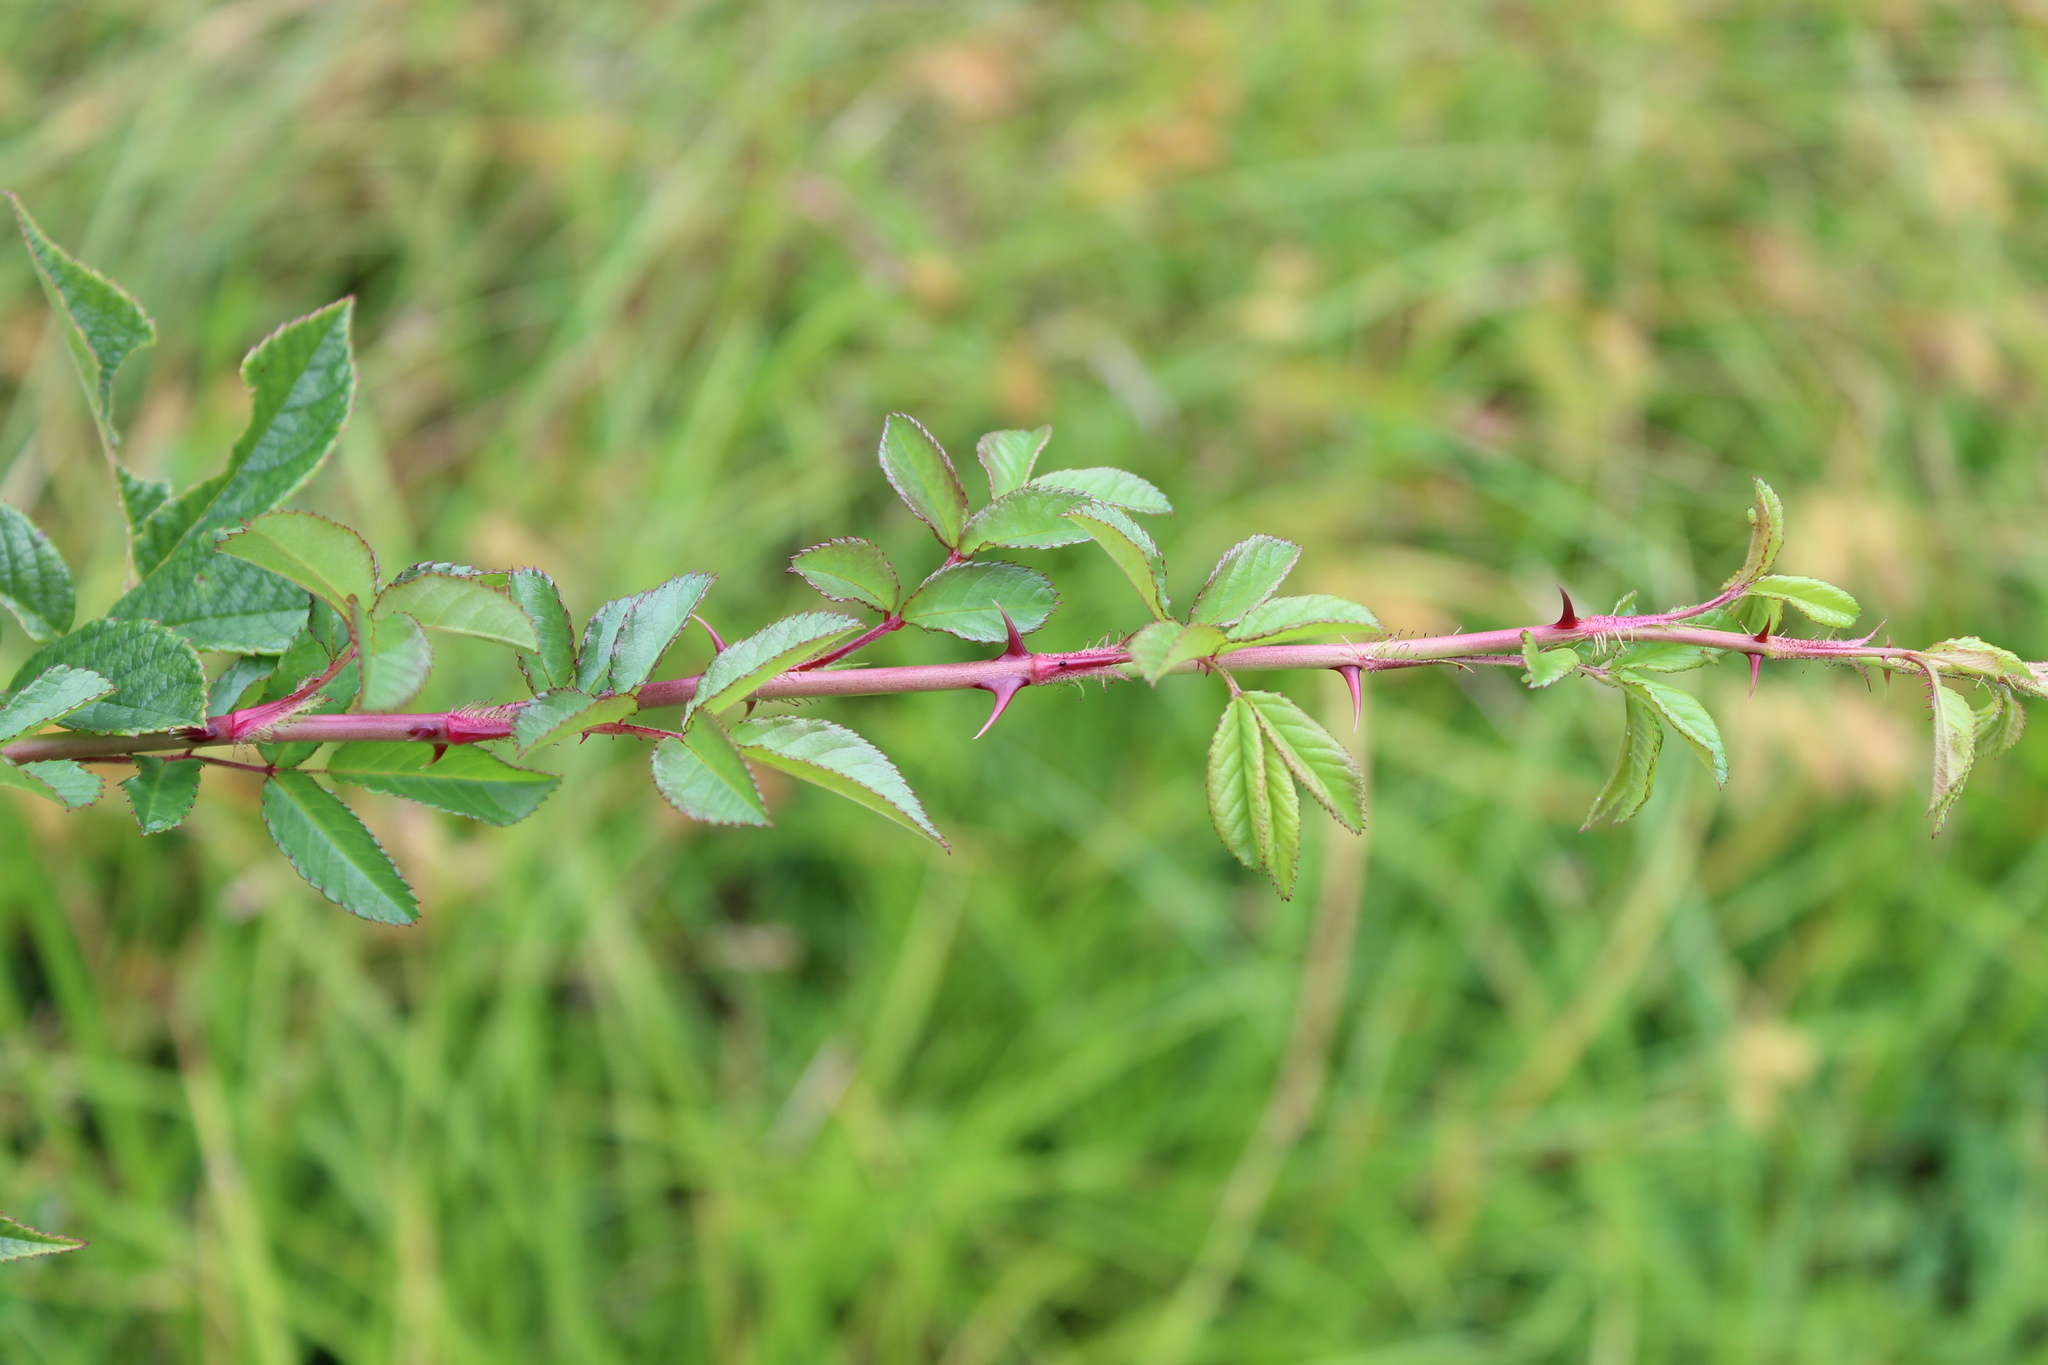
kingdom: Plantae
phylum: Tracheophyta
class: Magnoliopsida
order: Rosales
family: Rosaceae
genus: Rosa
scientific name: Rosa multiflora
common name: Multiflora rose
